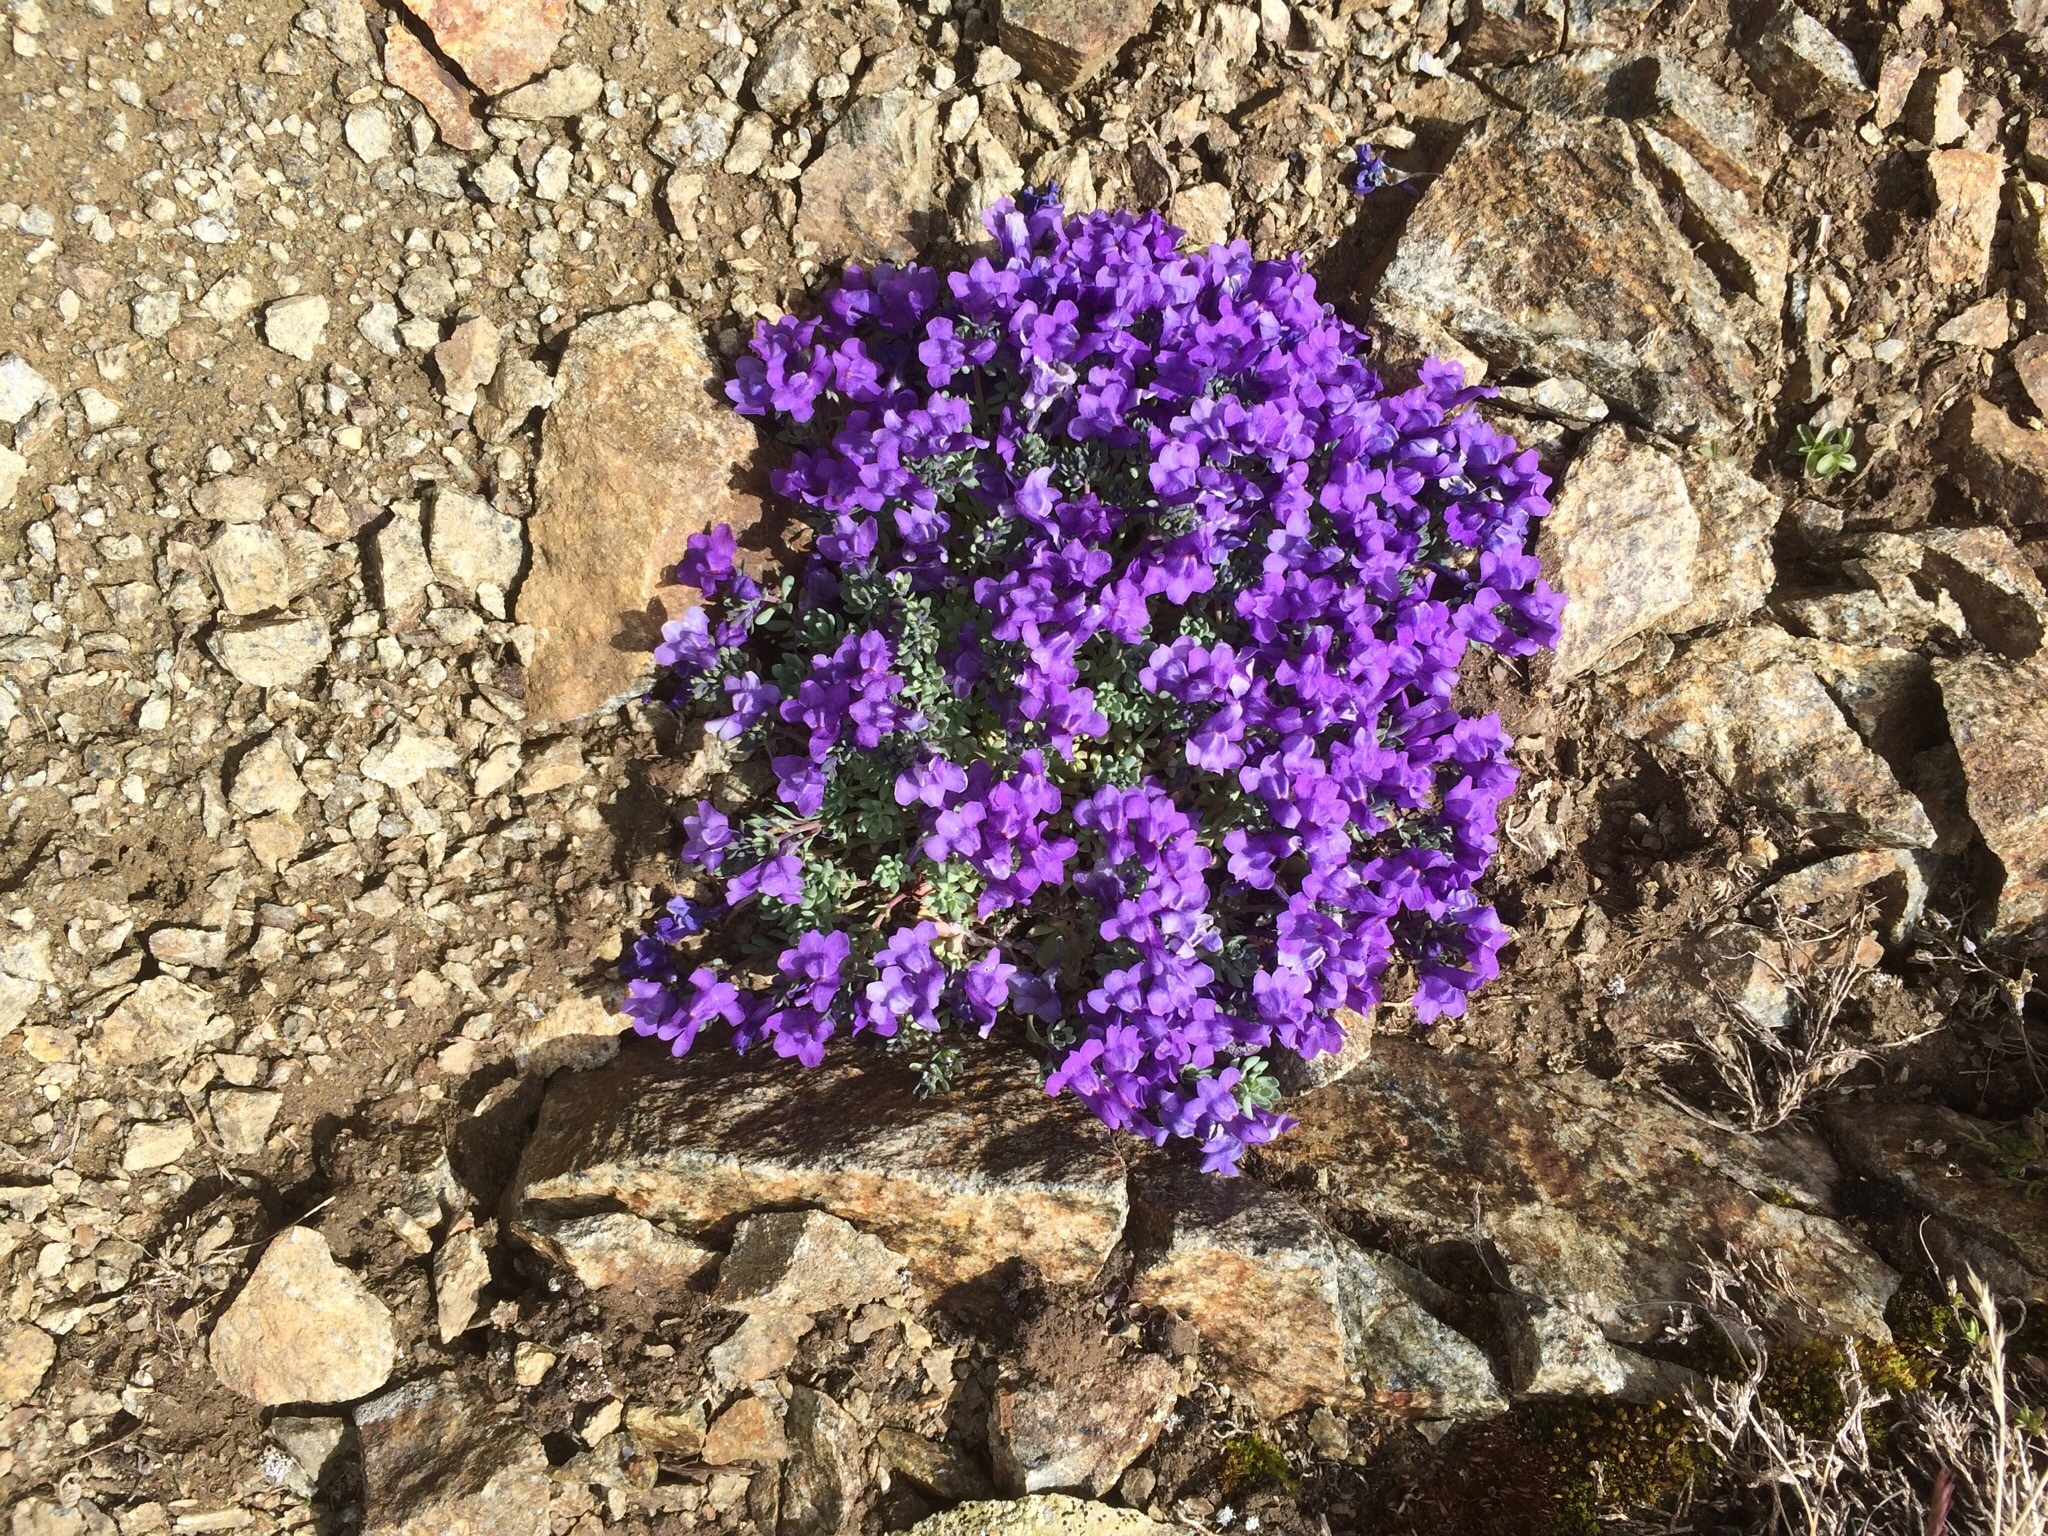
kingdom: Plantae
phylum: Tracheophyta
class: Magnoliopsida
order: Lamiales
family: Plantaginaceae
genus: Linaria
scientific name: Linaria alpina
